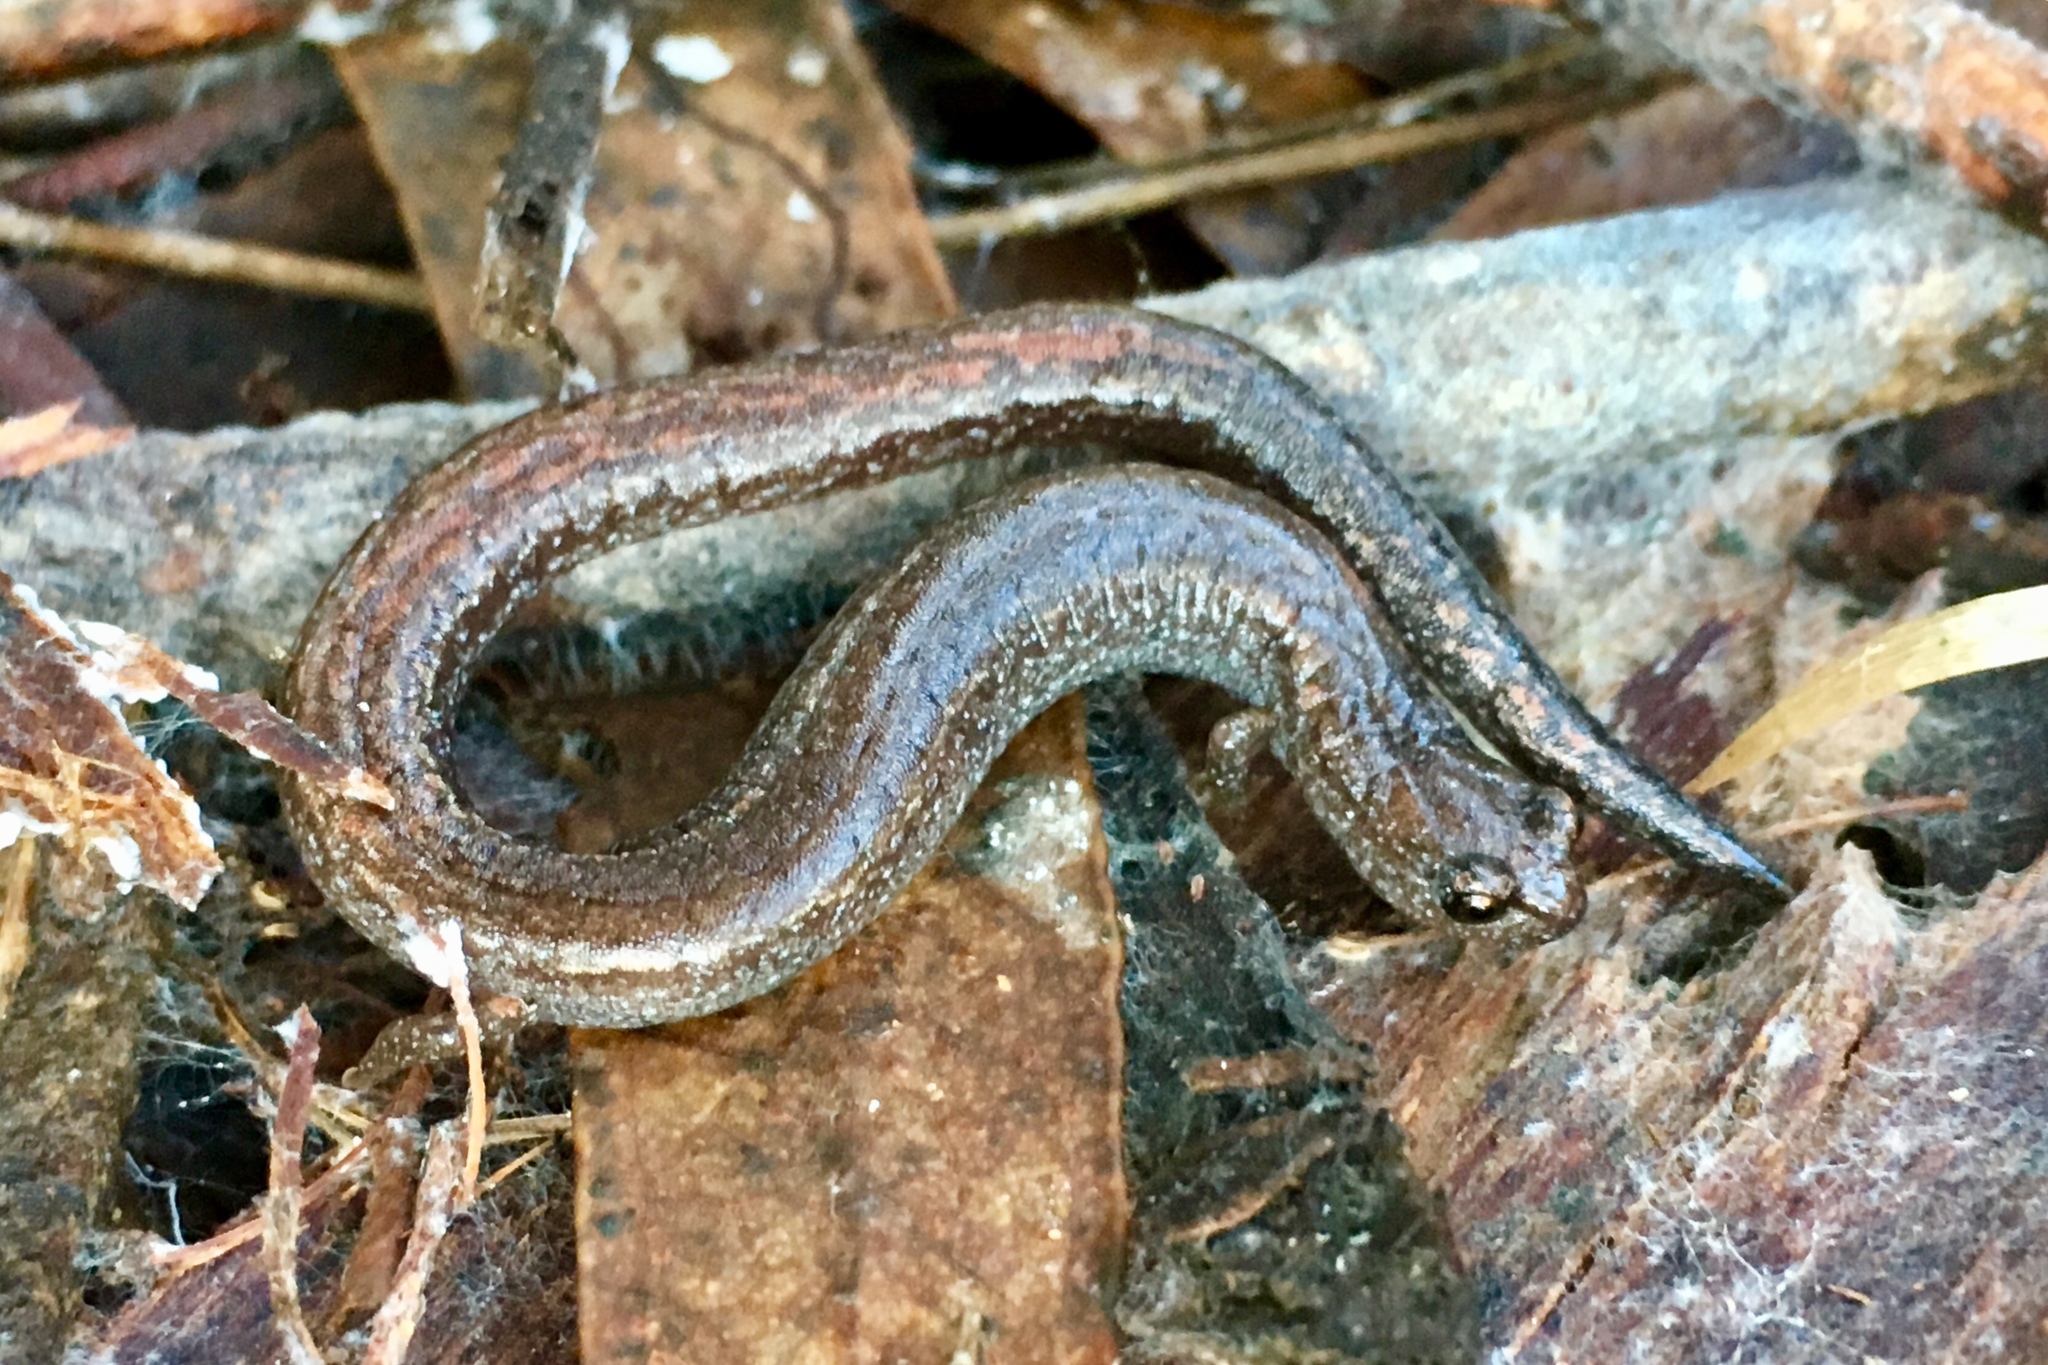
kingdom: Animalia
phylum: Chordata
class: Amphibia
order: Caudata
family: Plethodontidae
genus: Batrachoseps
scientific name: Batrachoseps major
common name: Garden slender salamander
